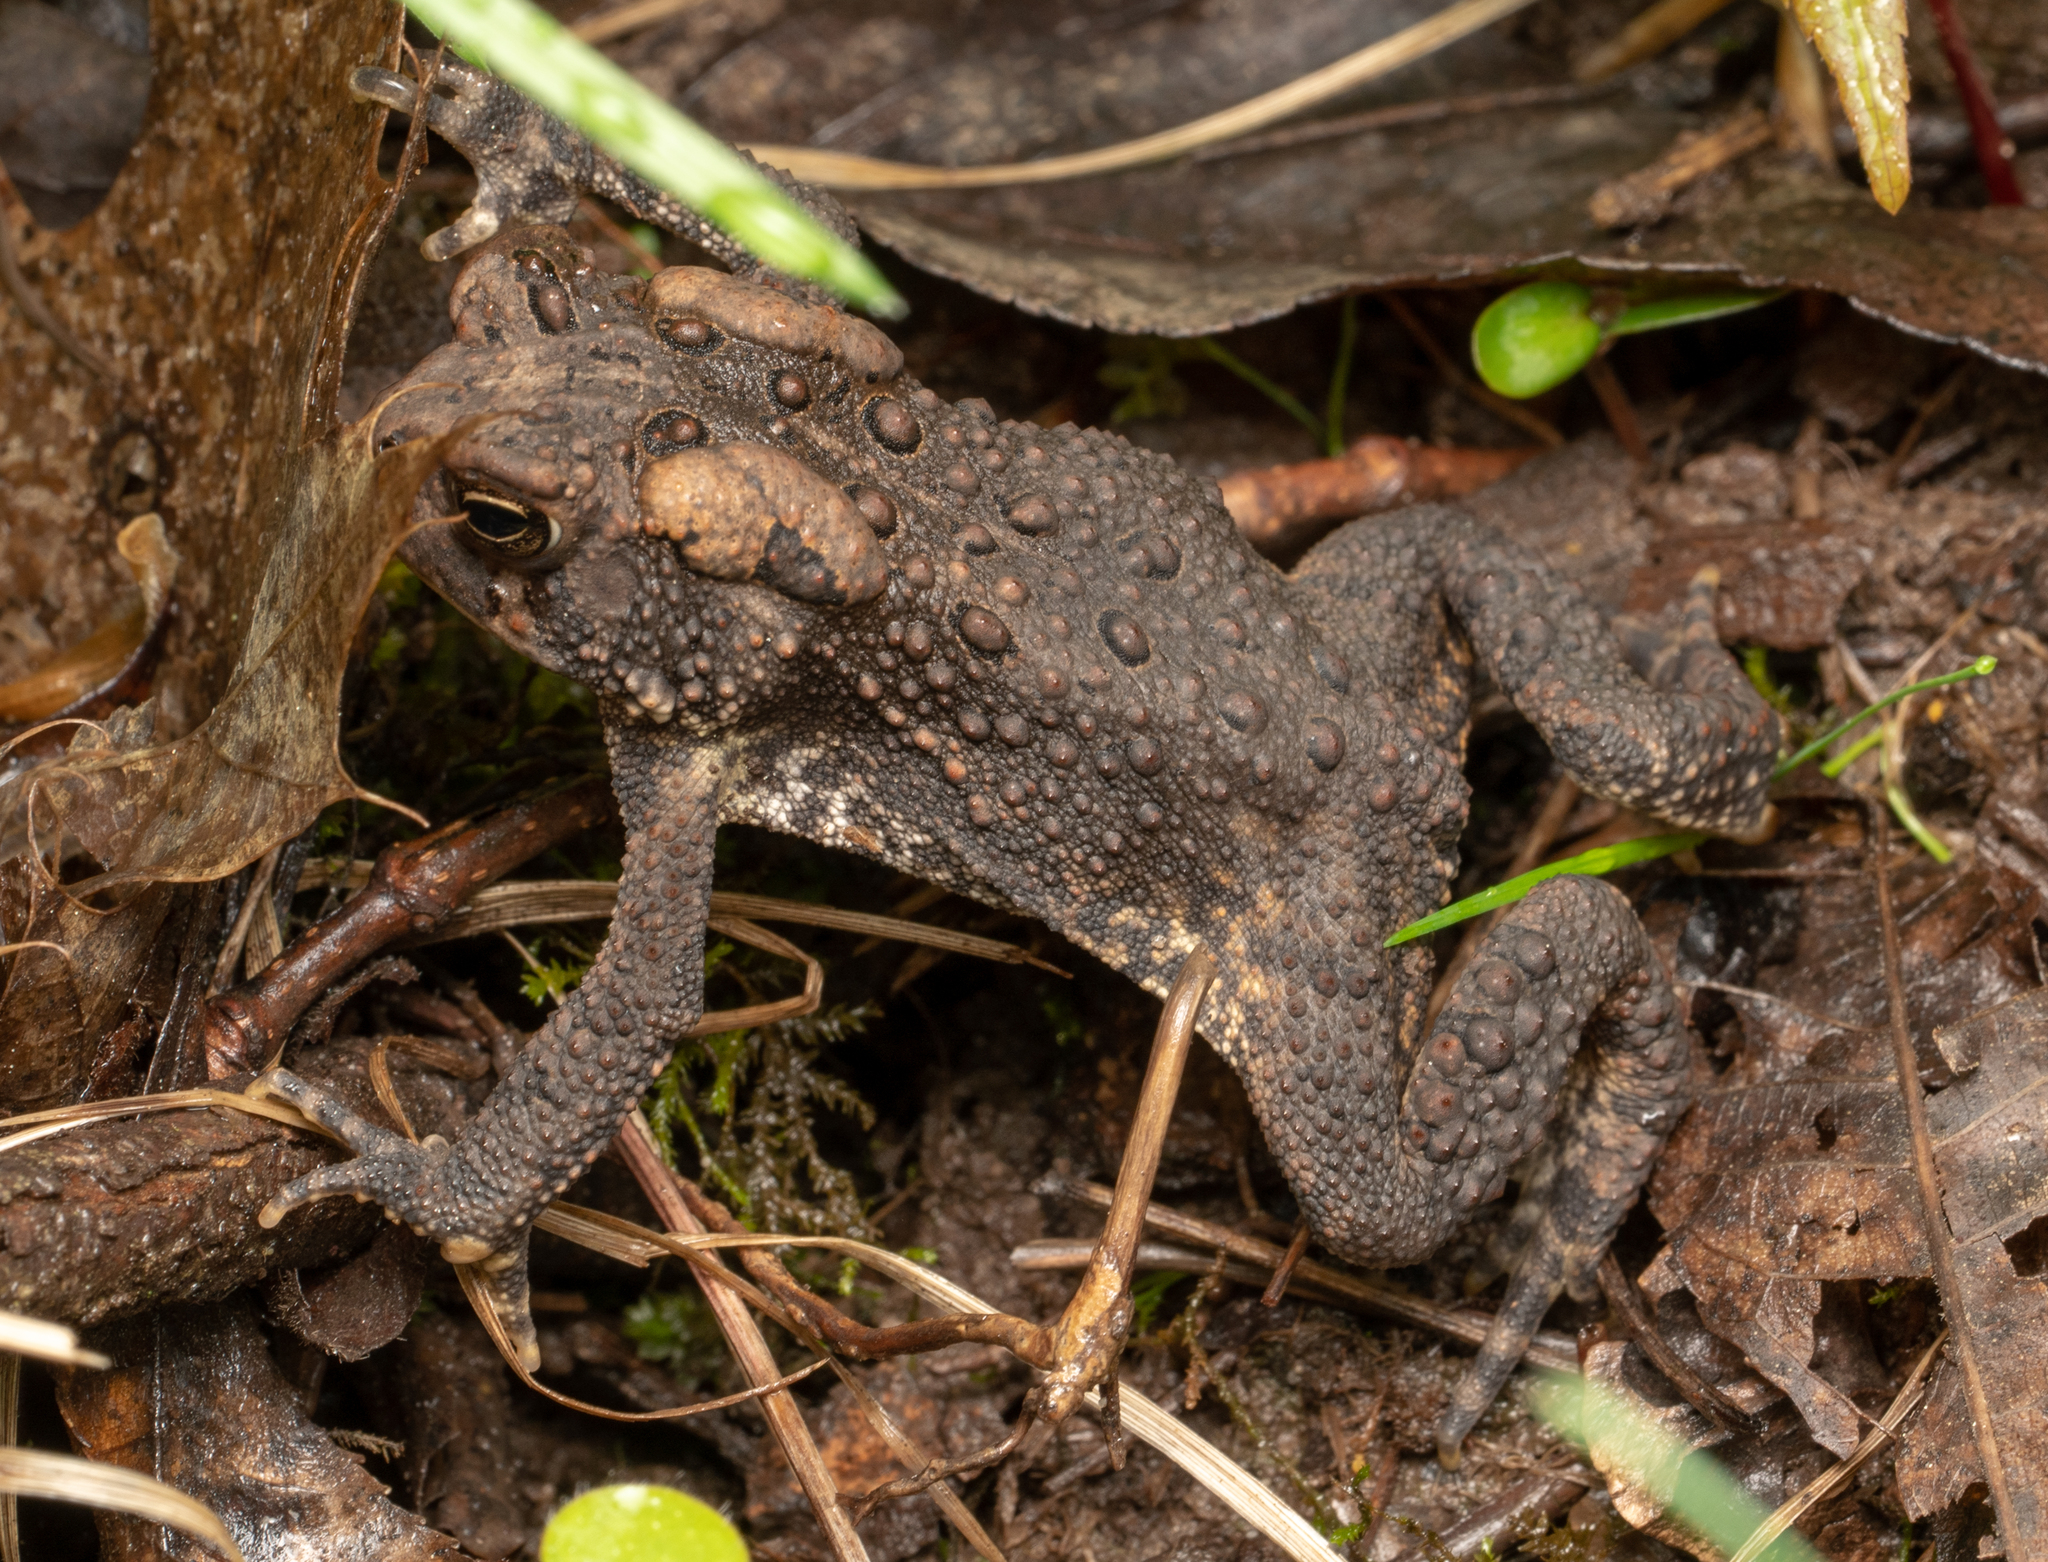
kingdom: Animalia
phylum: Chordata
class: Amphibia
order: Anura
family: Bufonidae
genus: Anaxyrus
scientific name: Anaxyrus americanus
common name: American toad
